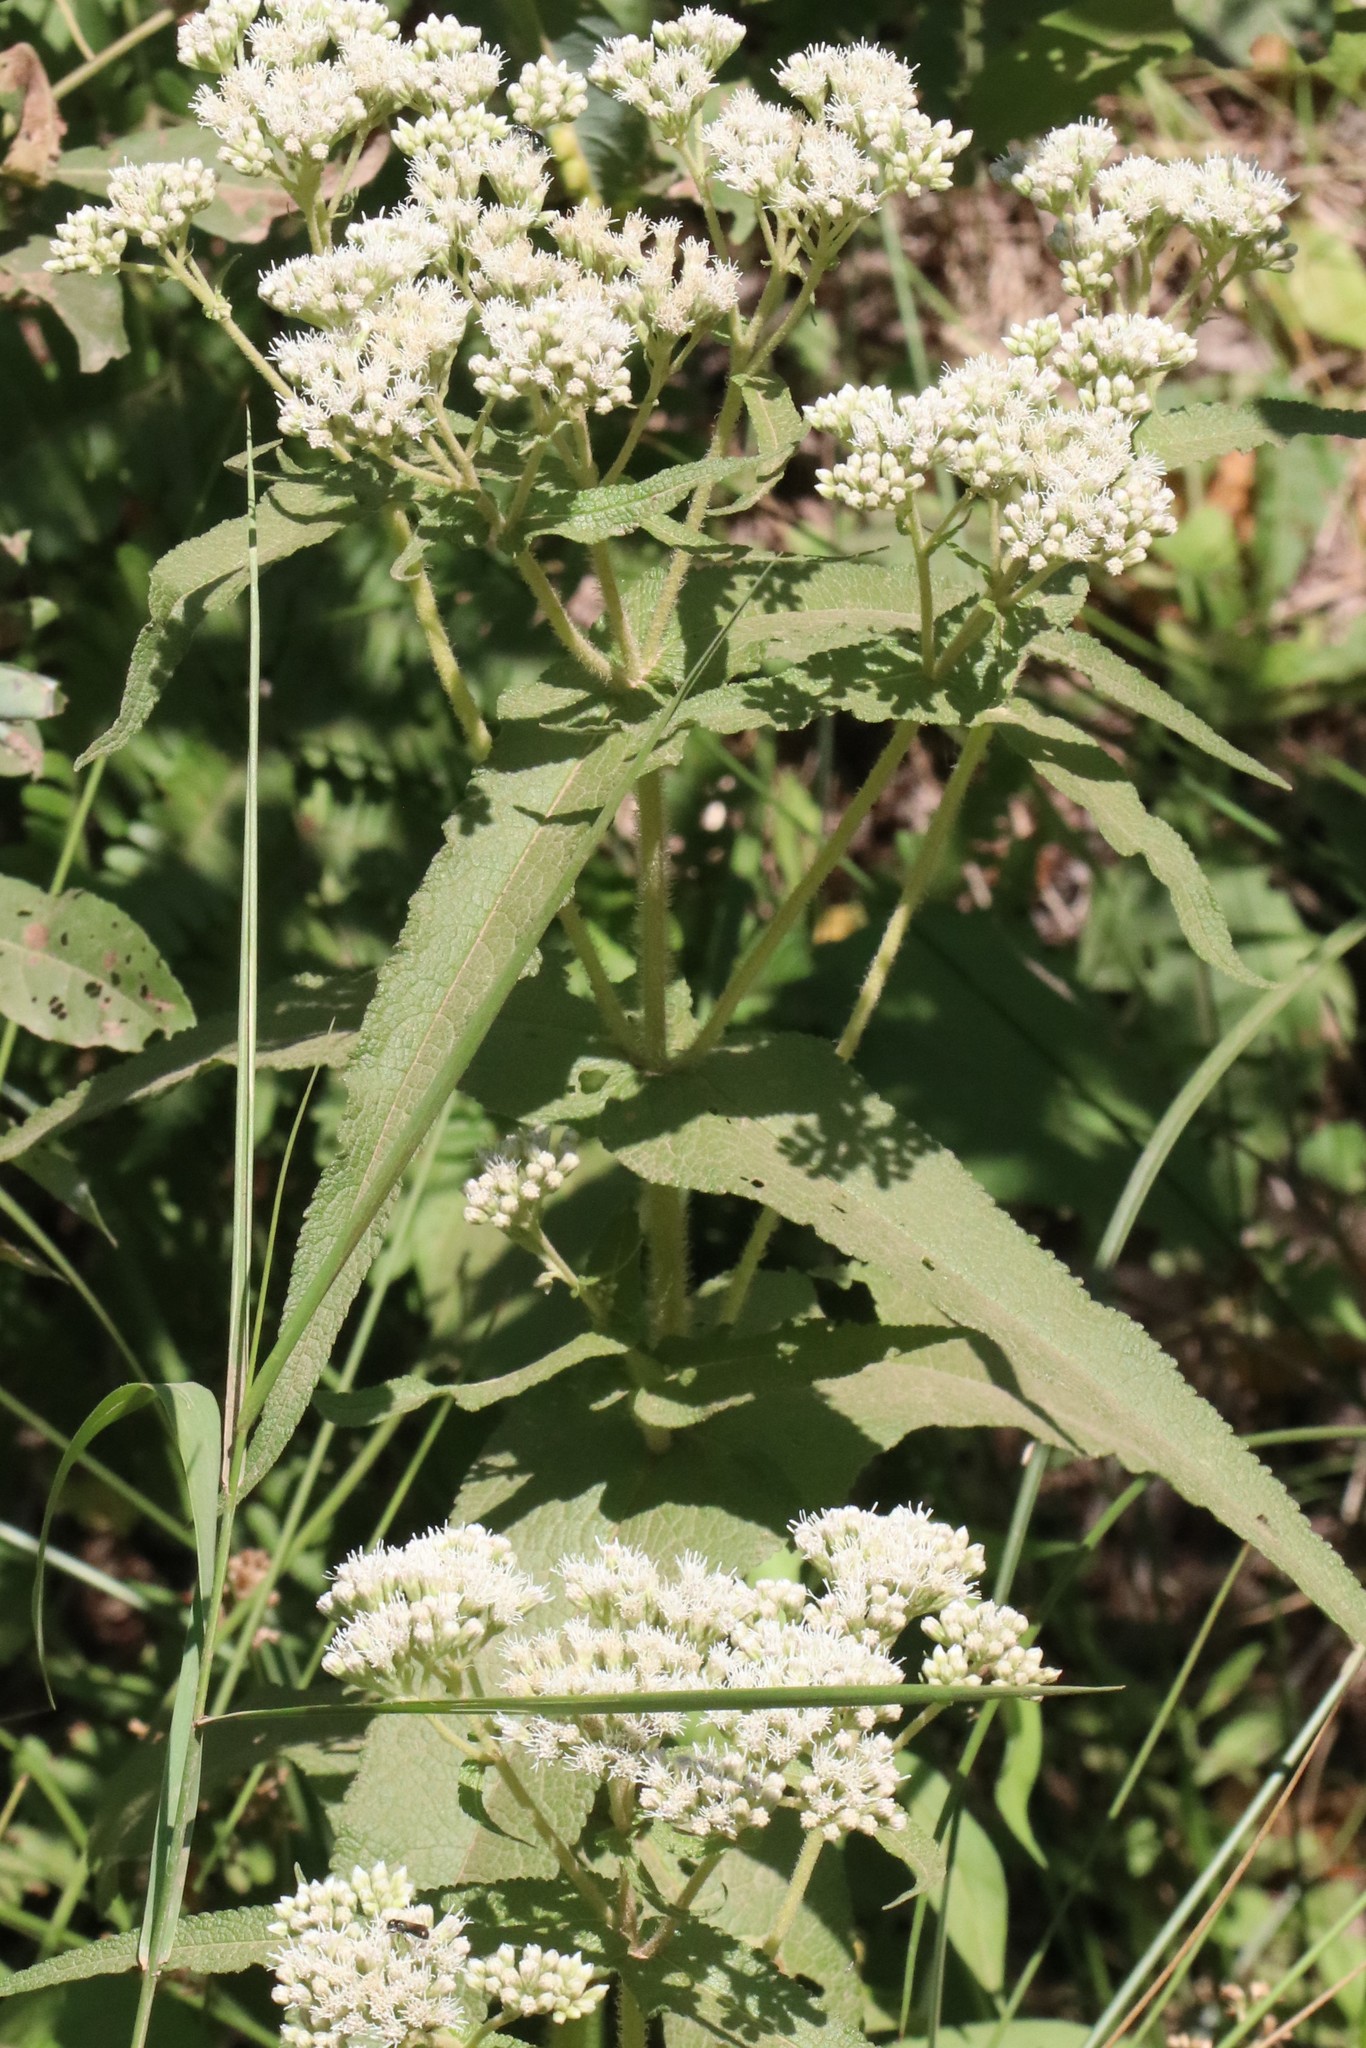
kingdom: Plantae
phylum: Tracheophyta
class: Magnoliopsida
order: Asterales
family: Asteraceae
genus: Eupatorium
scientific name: Eupatorium perfoliatum
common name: Boneset
